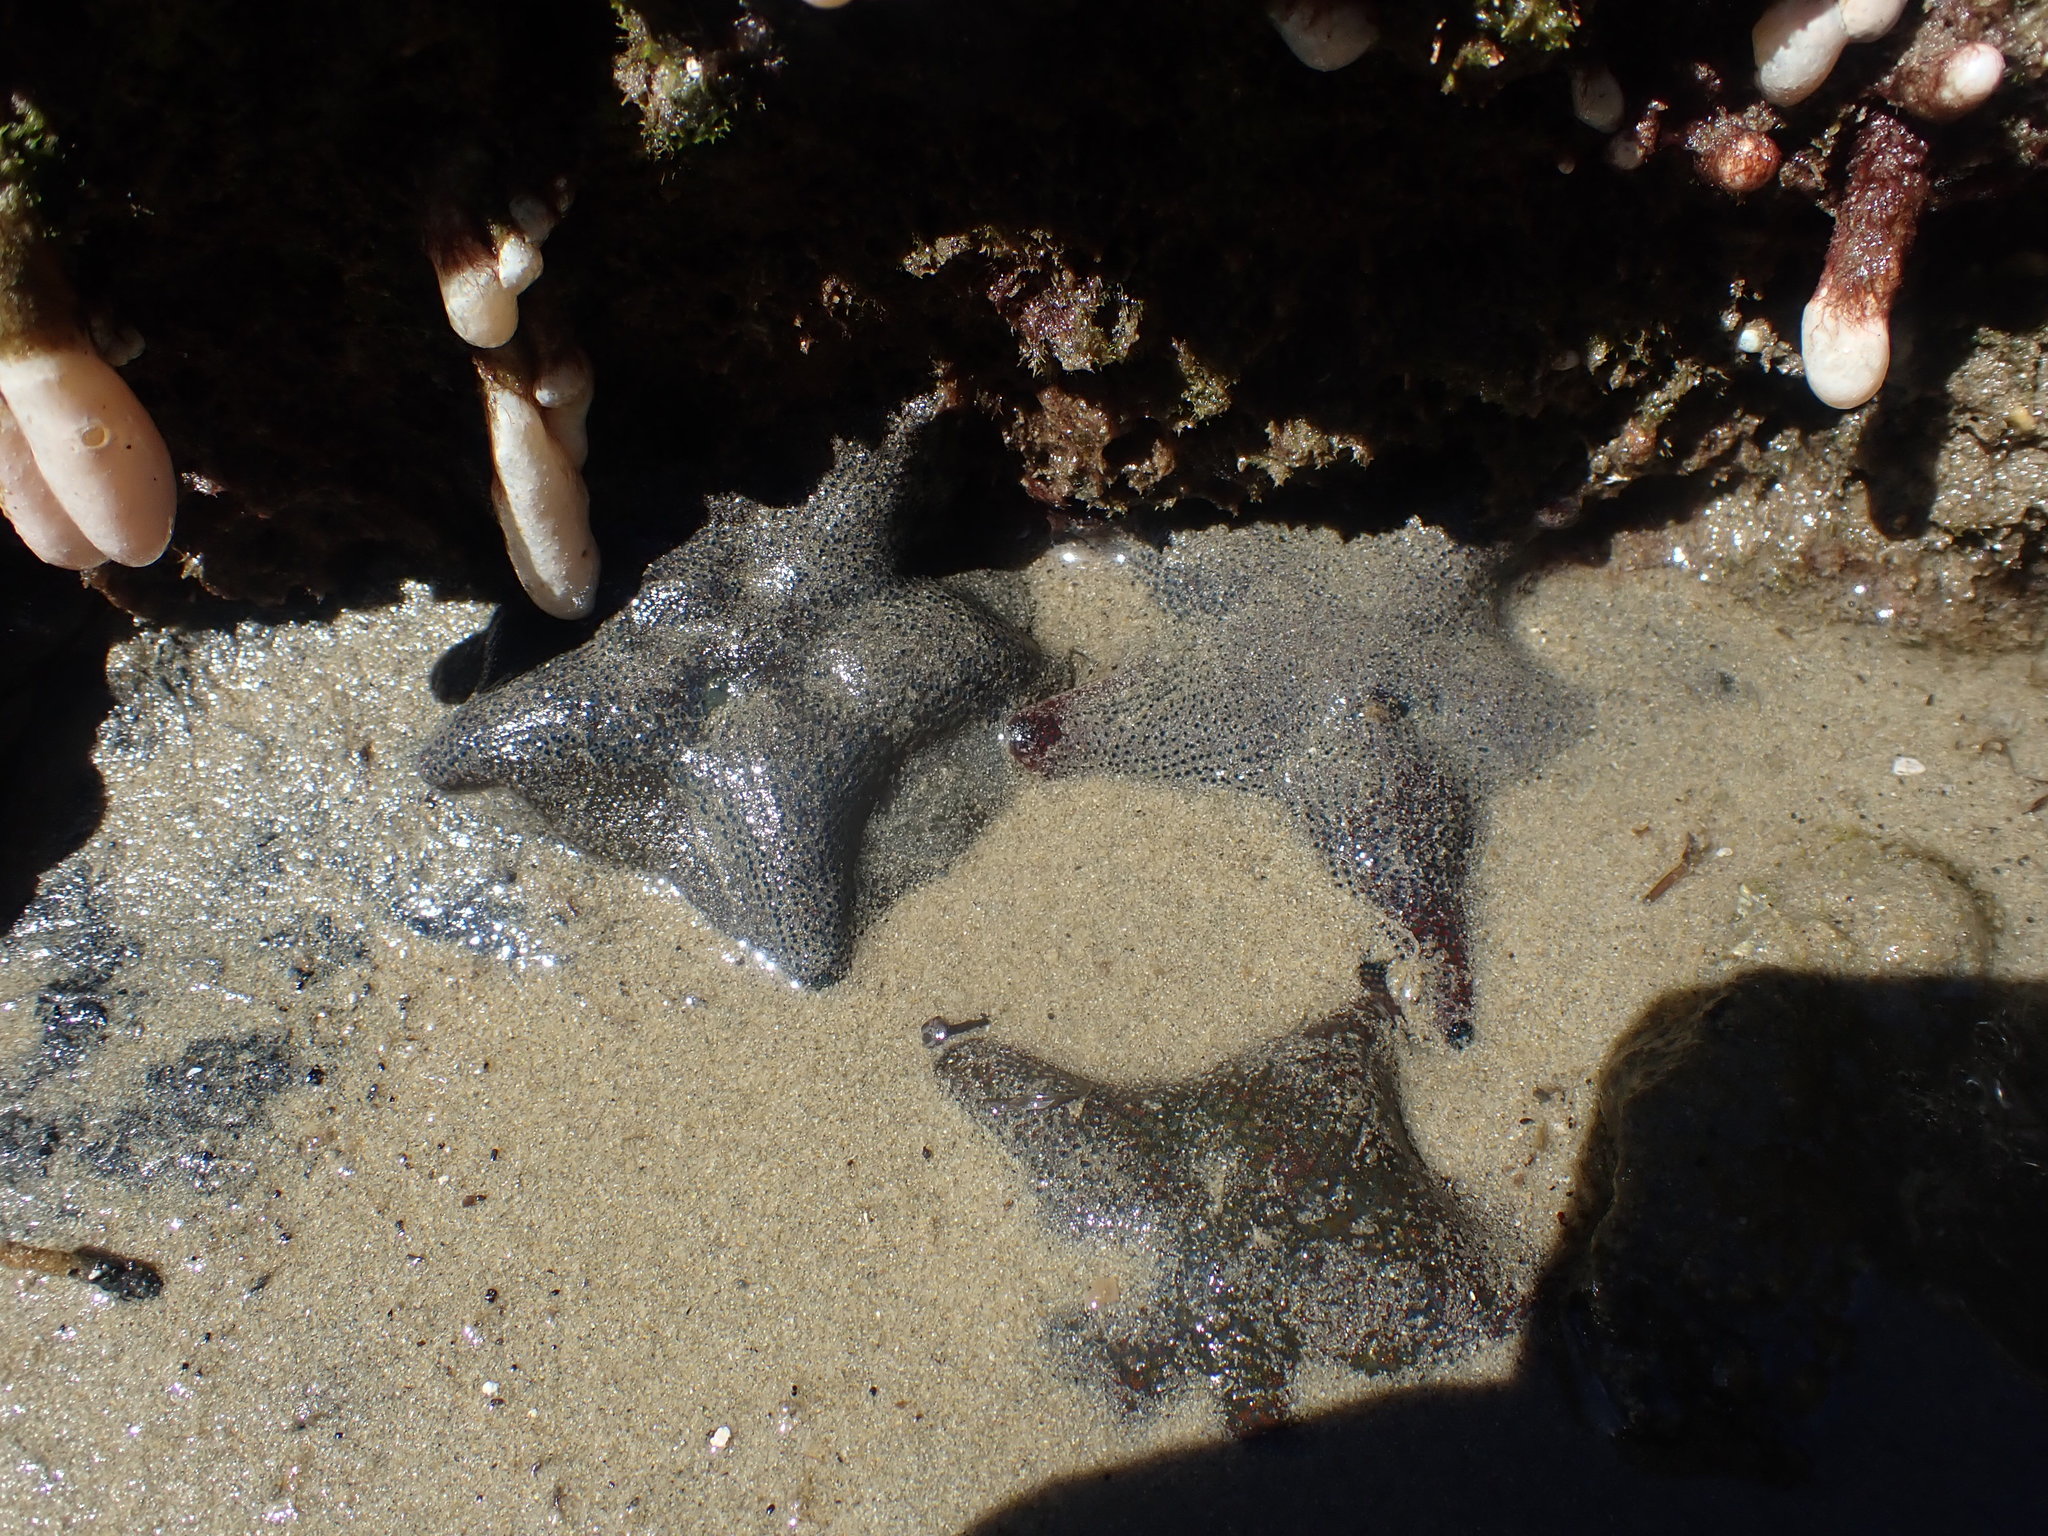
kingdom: Animalia
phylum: Echinodermata
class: Asteroidea
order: Valvatida
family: Asterinidae
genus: Patiriella
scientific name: Patiriella regularis
